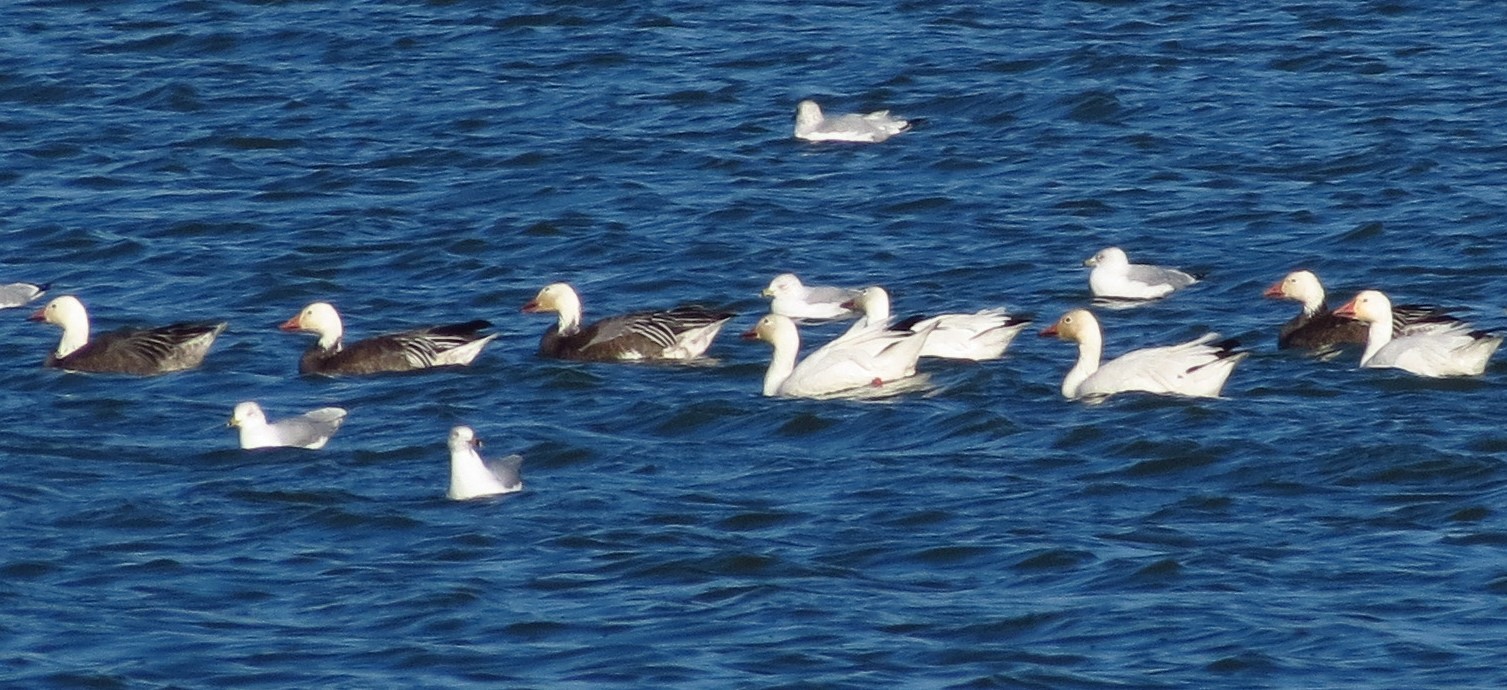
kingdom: Animalia
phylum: Chordata
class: Aves
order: Anseriformes
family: Anatidae
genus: Anser
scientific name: Anser caerulescens
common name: Snow goose
